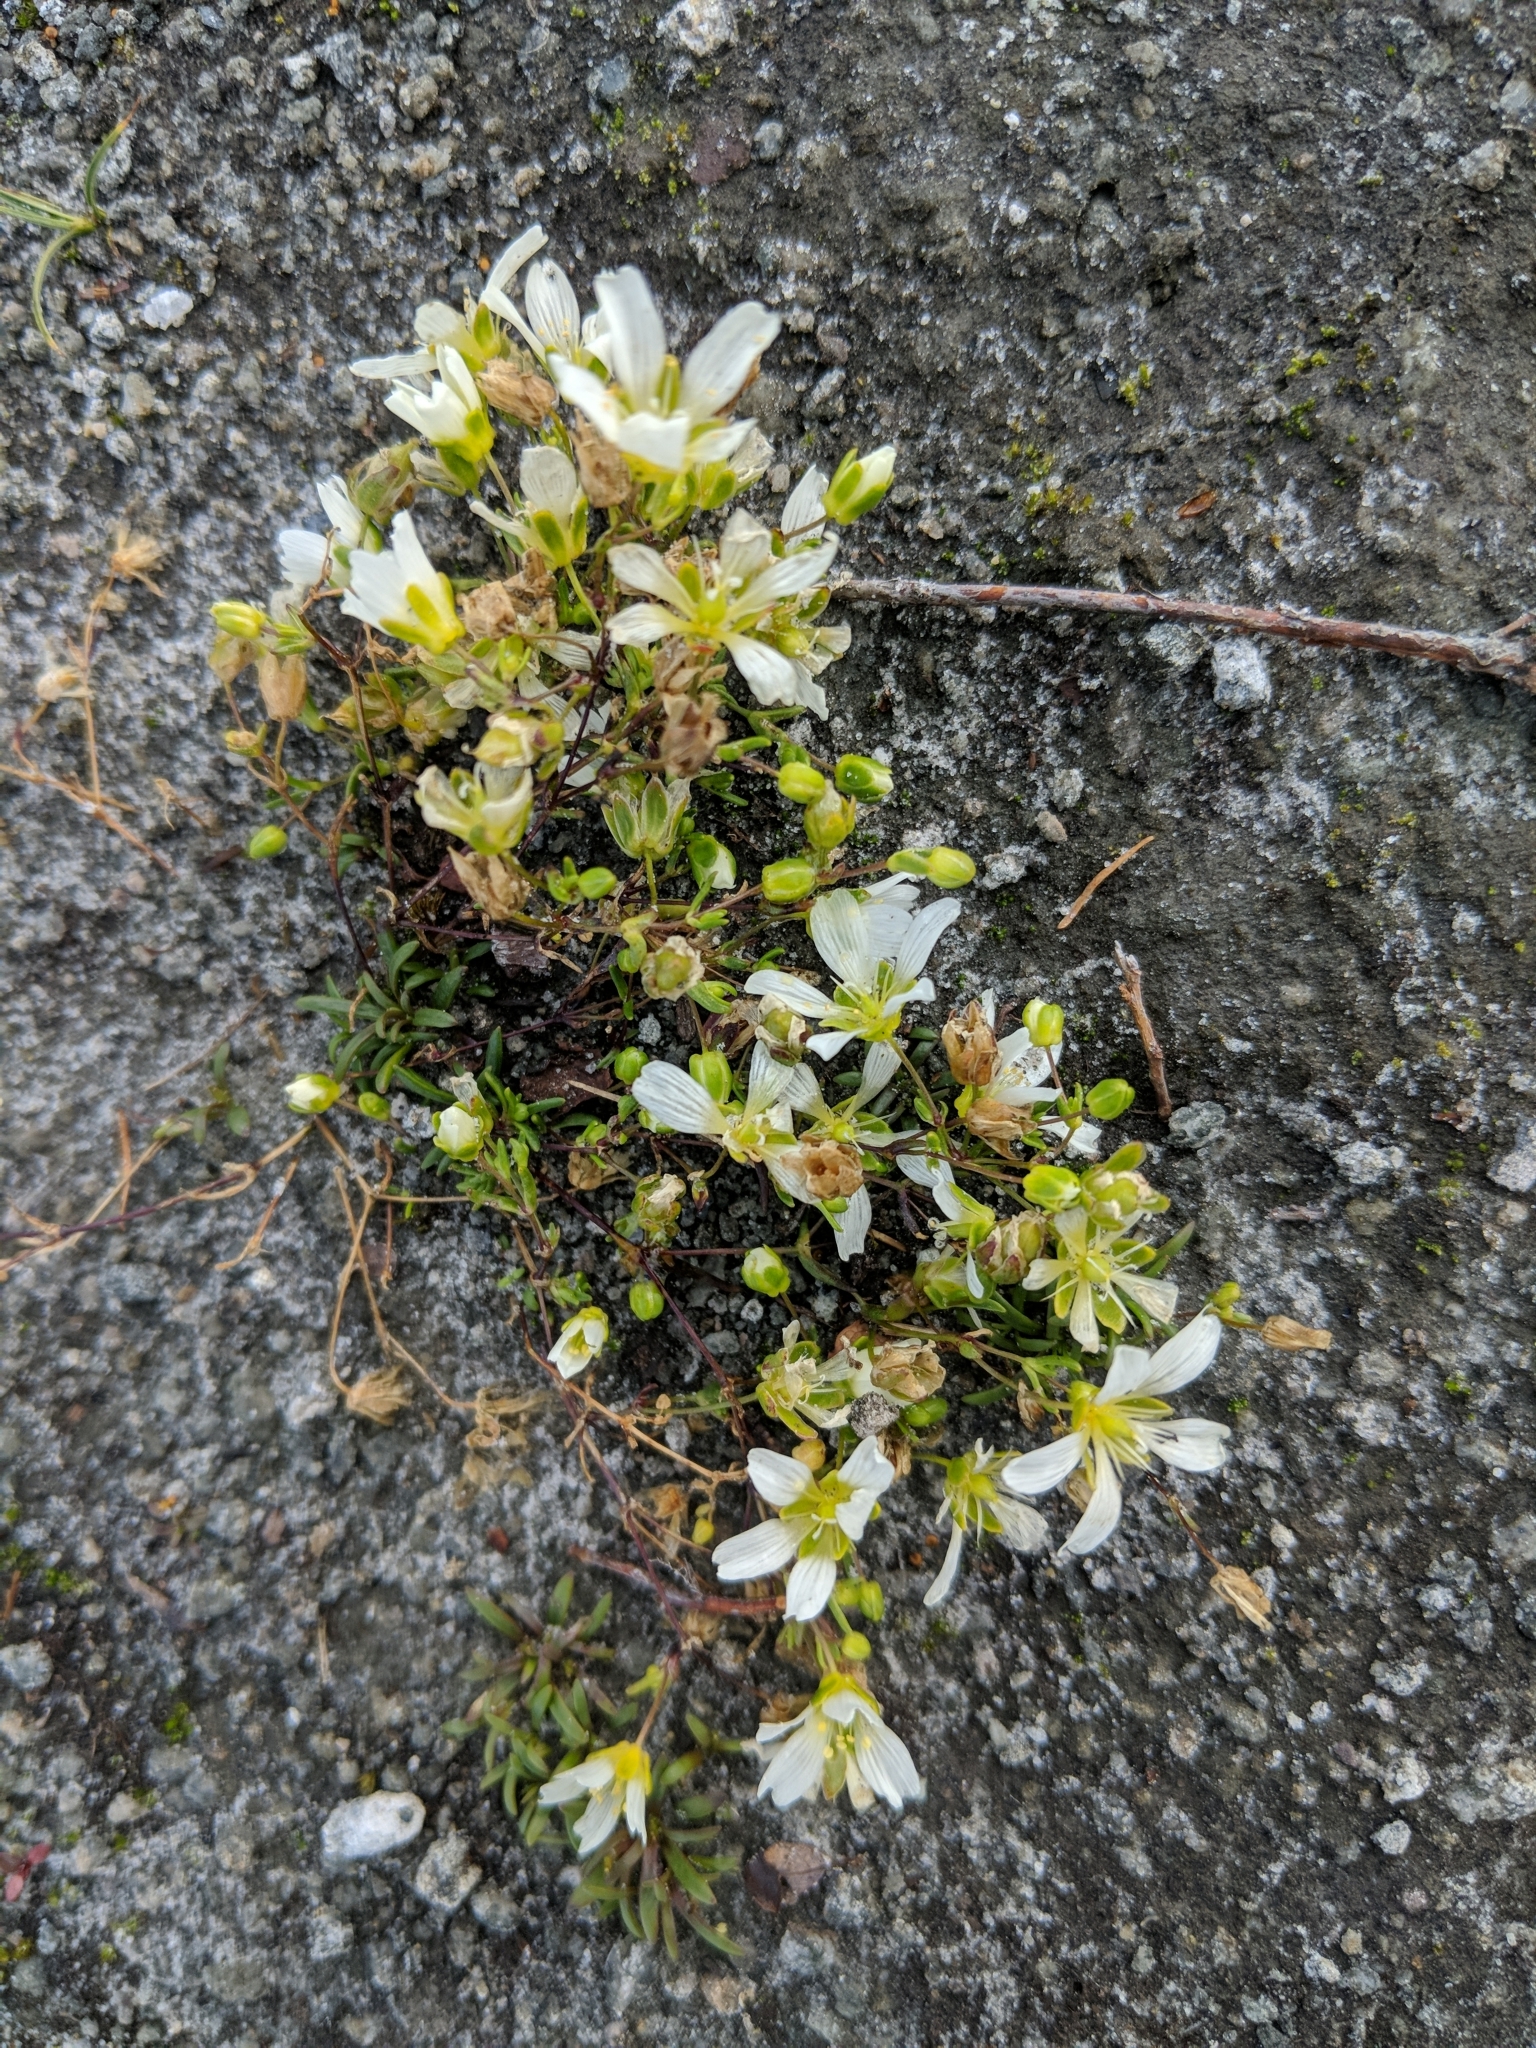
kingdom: Plantae
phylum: Tracheophyta
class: Magnoliopsida
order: Caryophyllales
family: Caryophyllaceae
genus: Geocarpon
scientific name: Geocarpon groenlandicum
